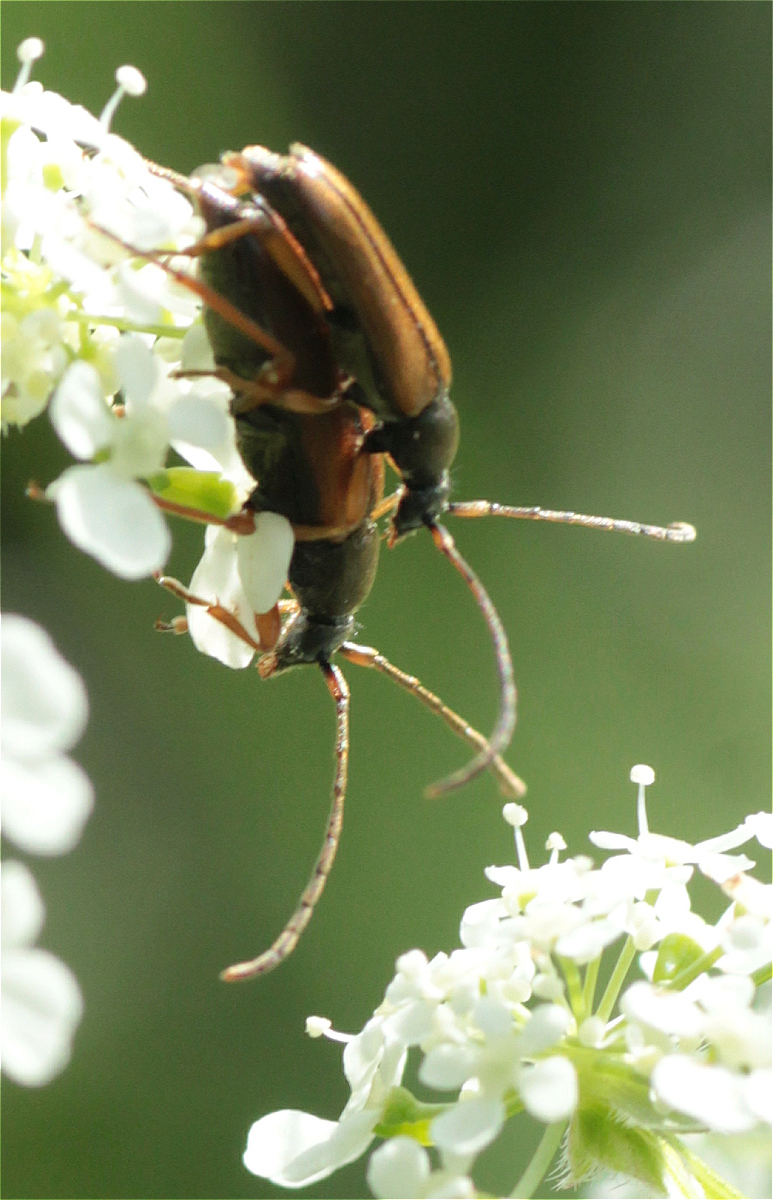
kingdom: Animalia
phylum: Arthropoda
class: Insecta
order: Coleoptera
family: Cerambycidae
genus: Alosterna
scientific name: Alosterna tabacicolor
